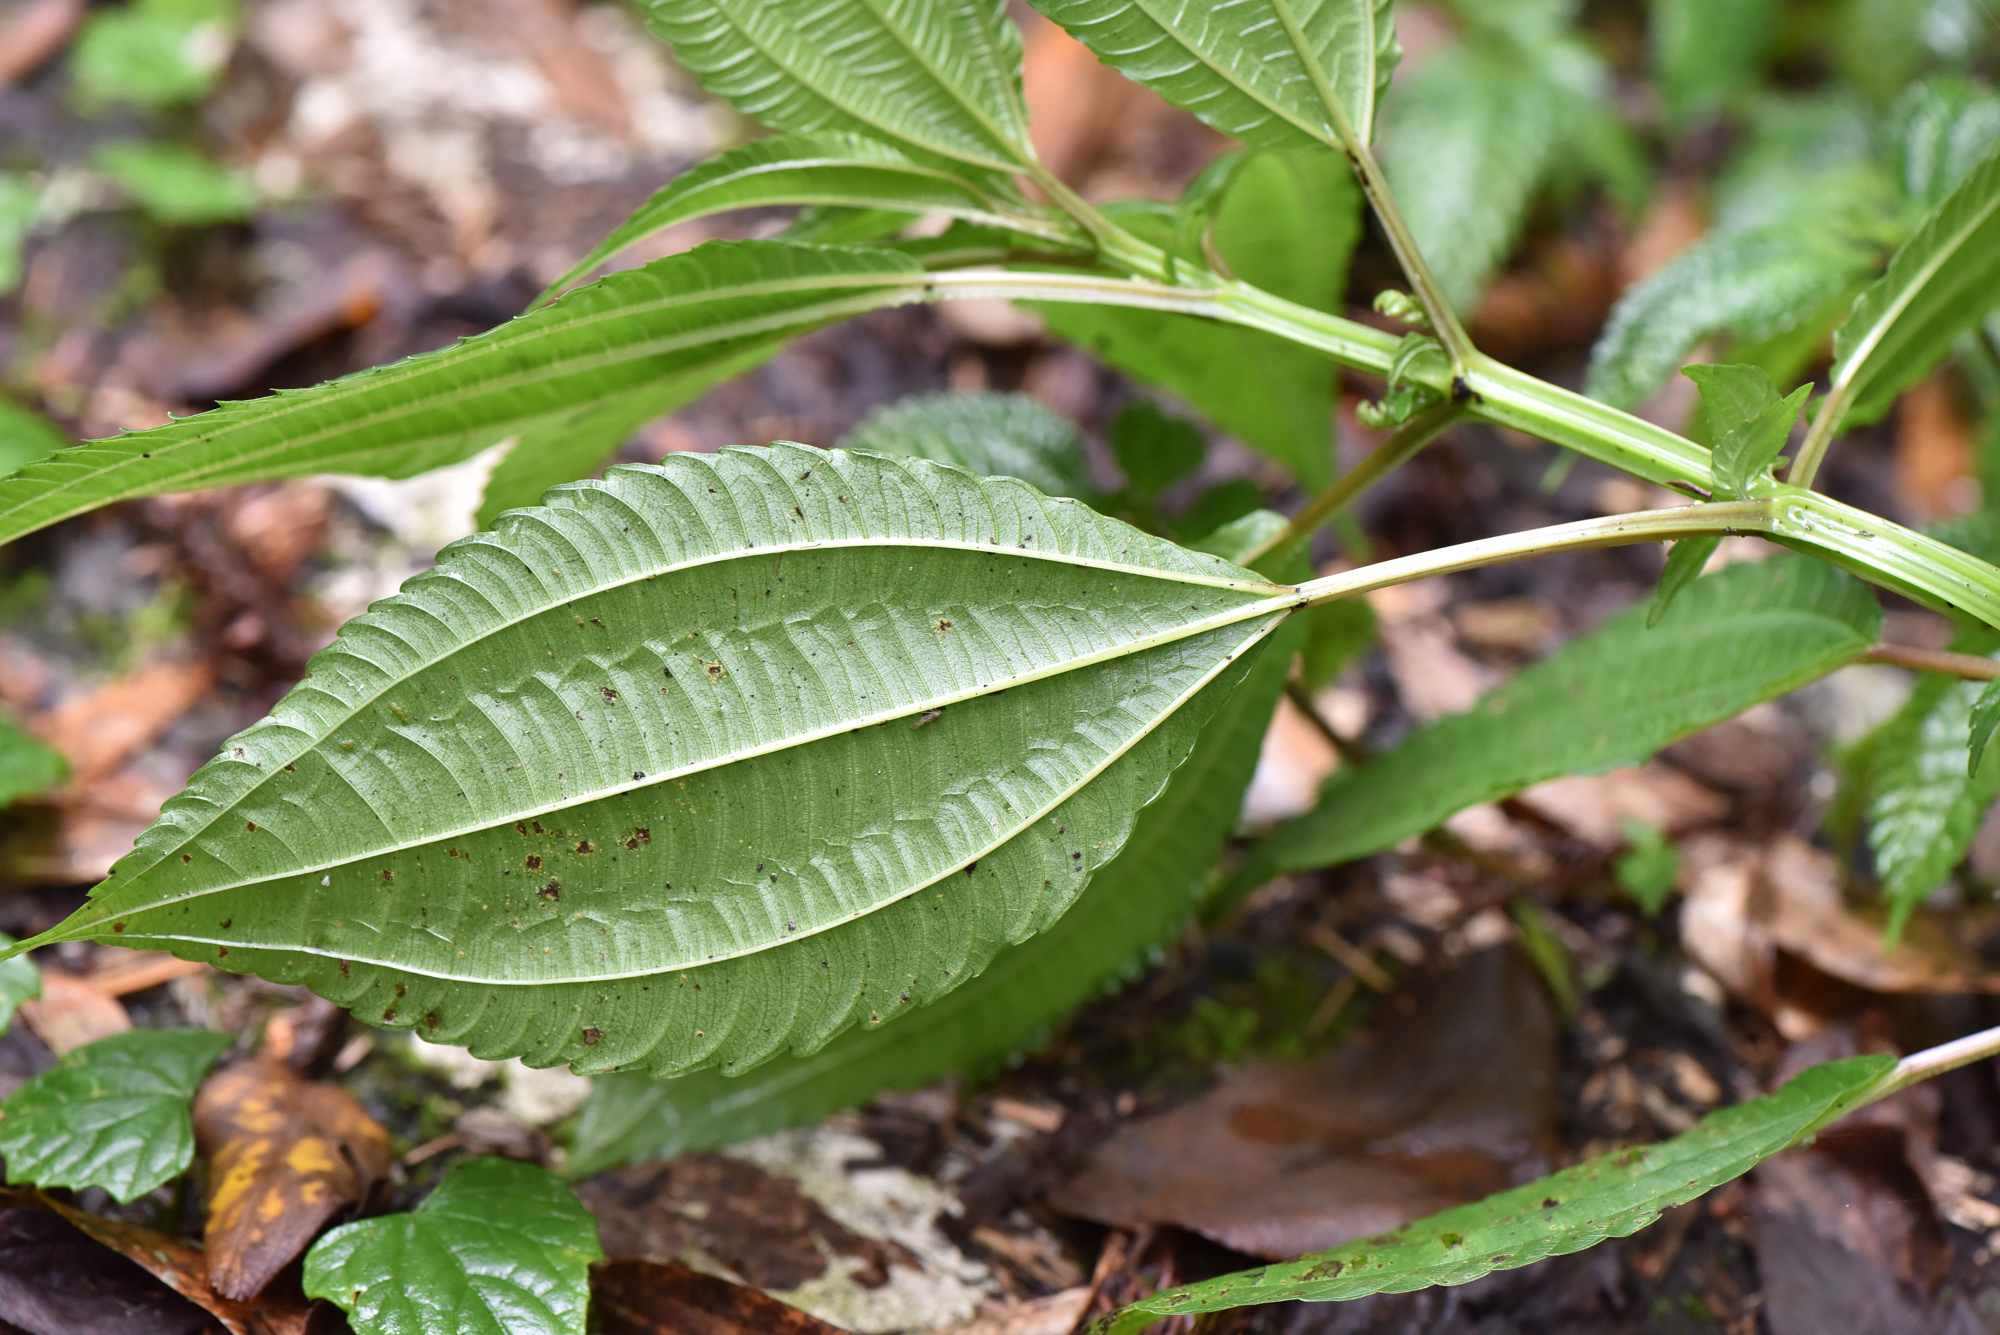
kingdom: Plantae
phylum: Tracheophyta
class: Magnoliopsida
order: Rosales
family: Urticaceae
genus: Pilea
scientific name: Pilea melastomoides
